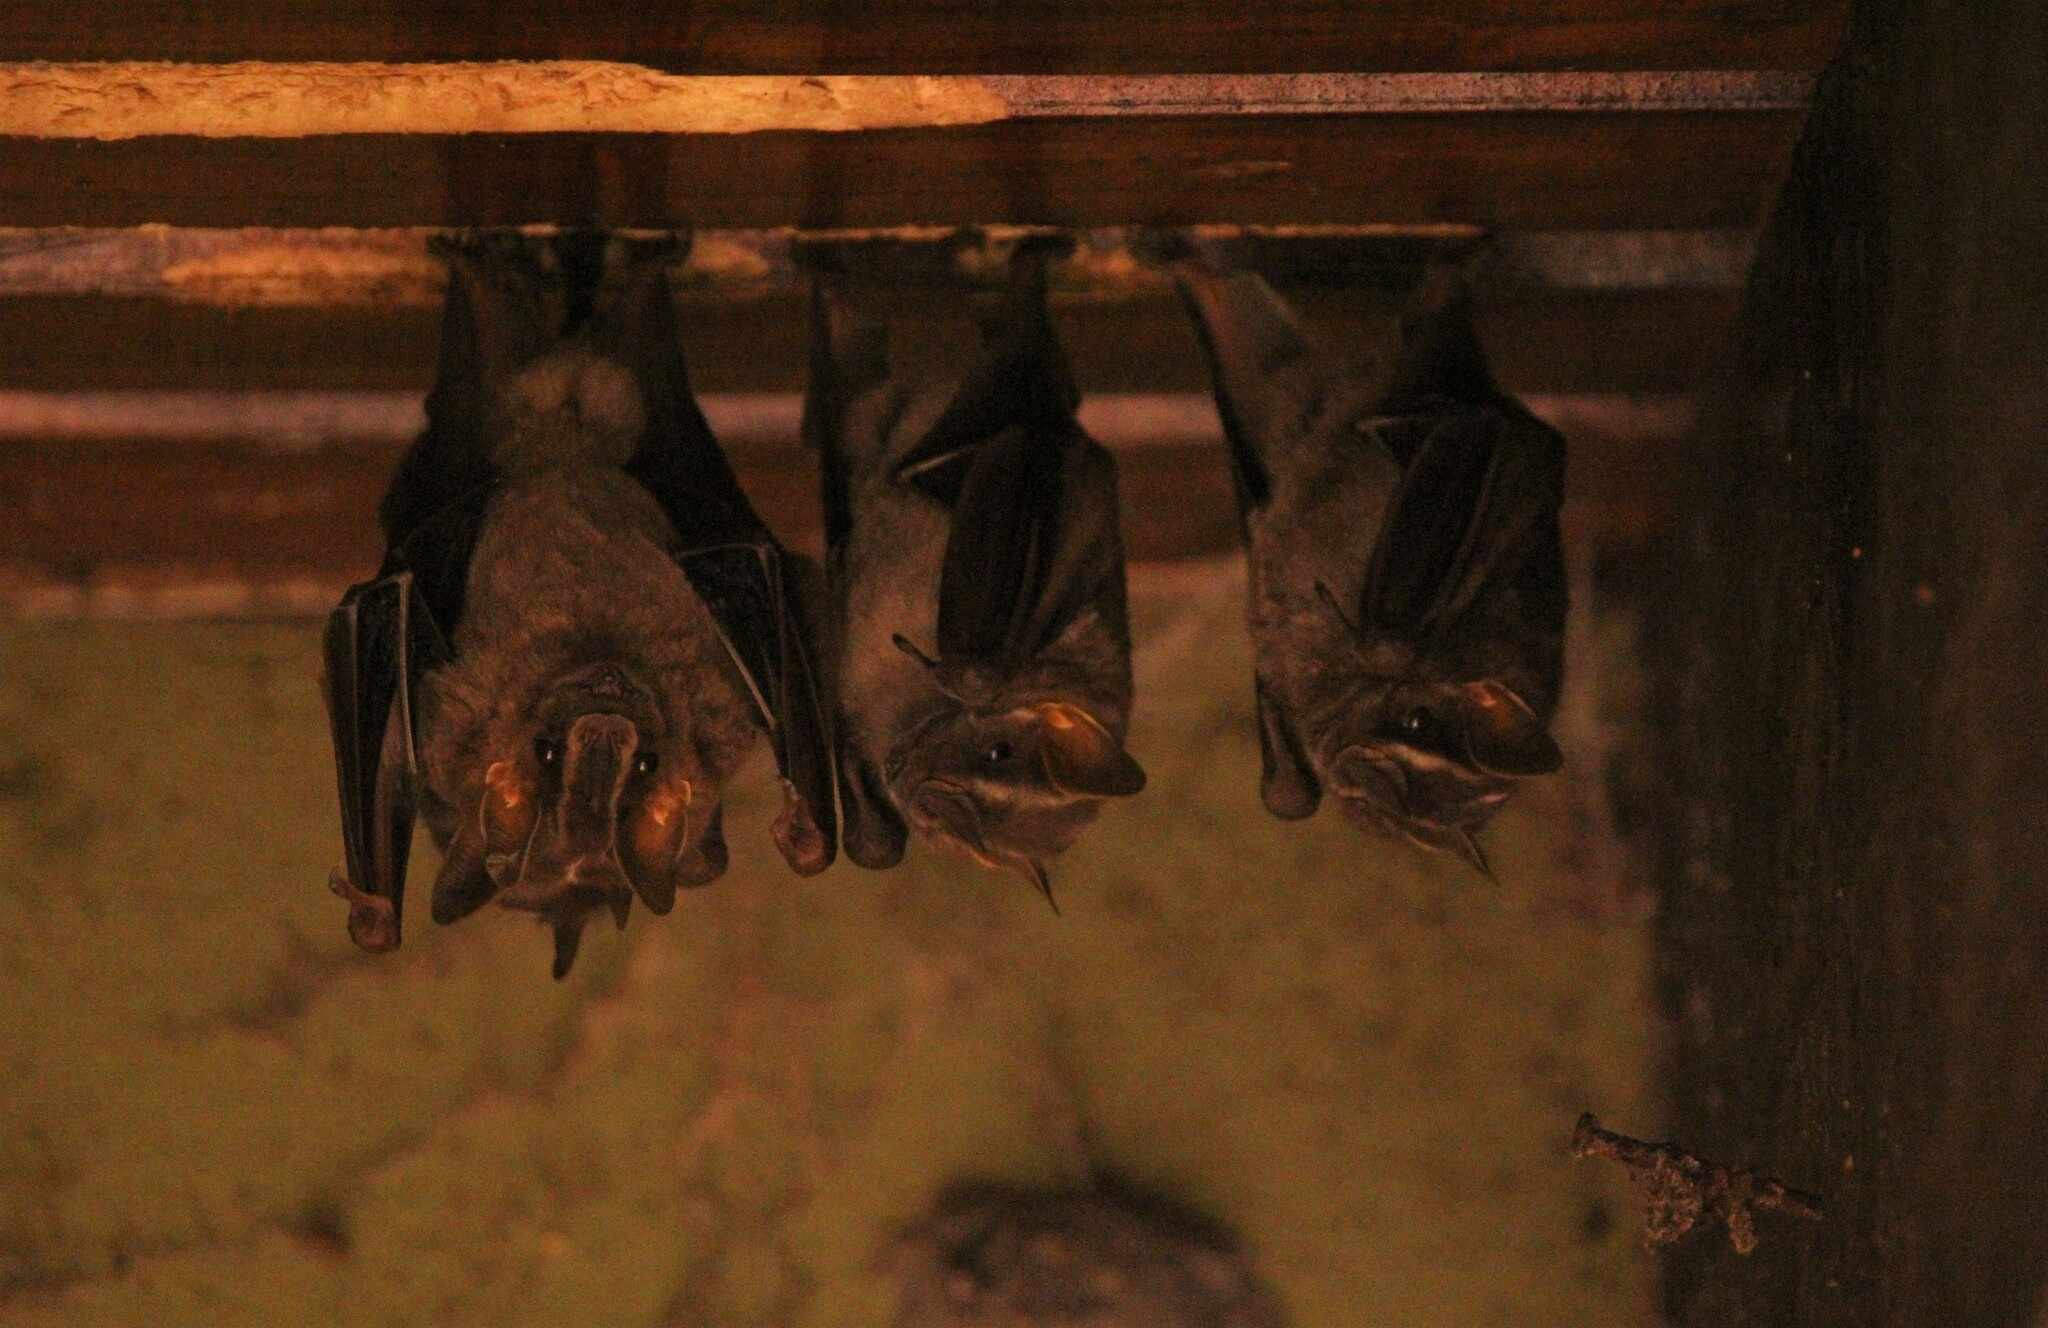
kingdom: Animalia
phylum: Chordata
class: Mammalia
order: Chiroptera
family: Phyllostomidae
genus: Platyrrhinus
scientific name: Platyrrhinus lineatus
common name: White-lined broad-nosed bat
